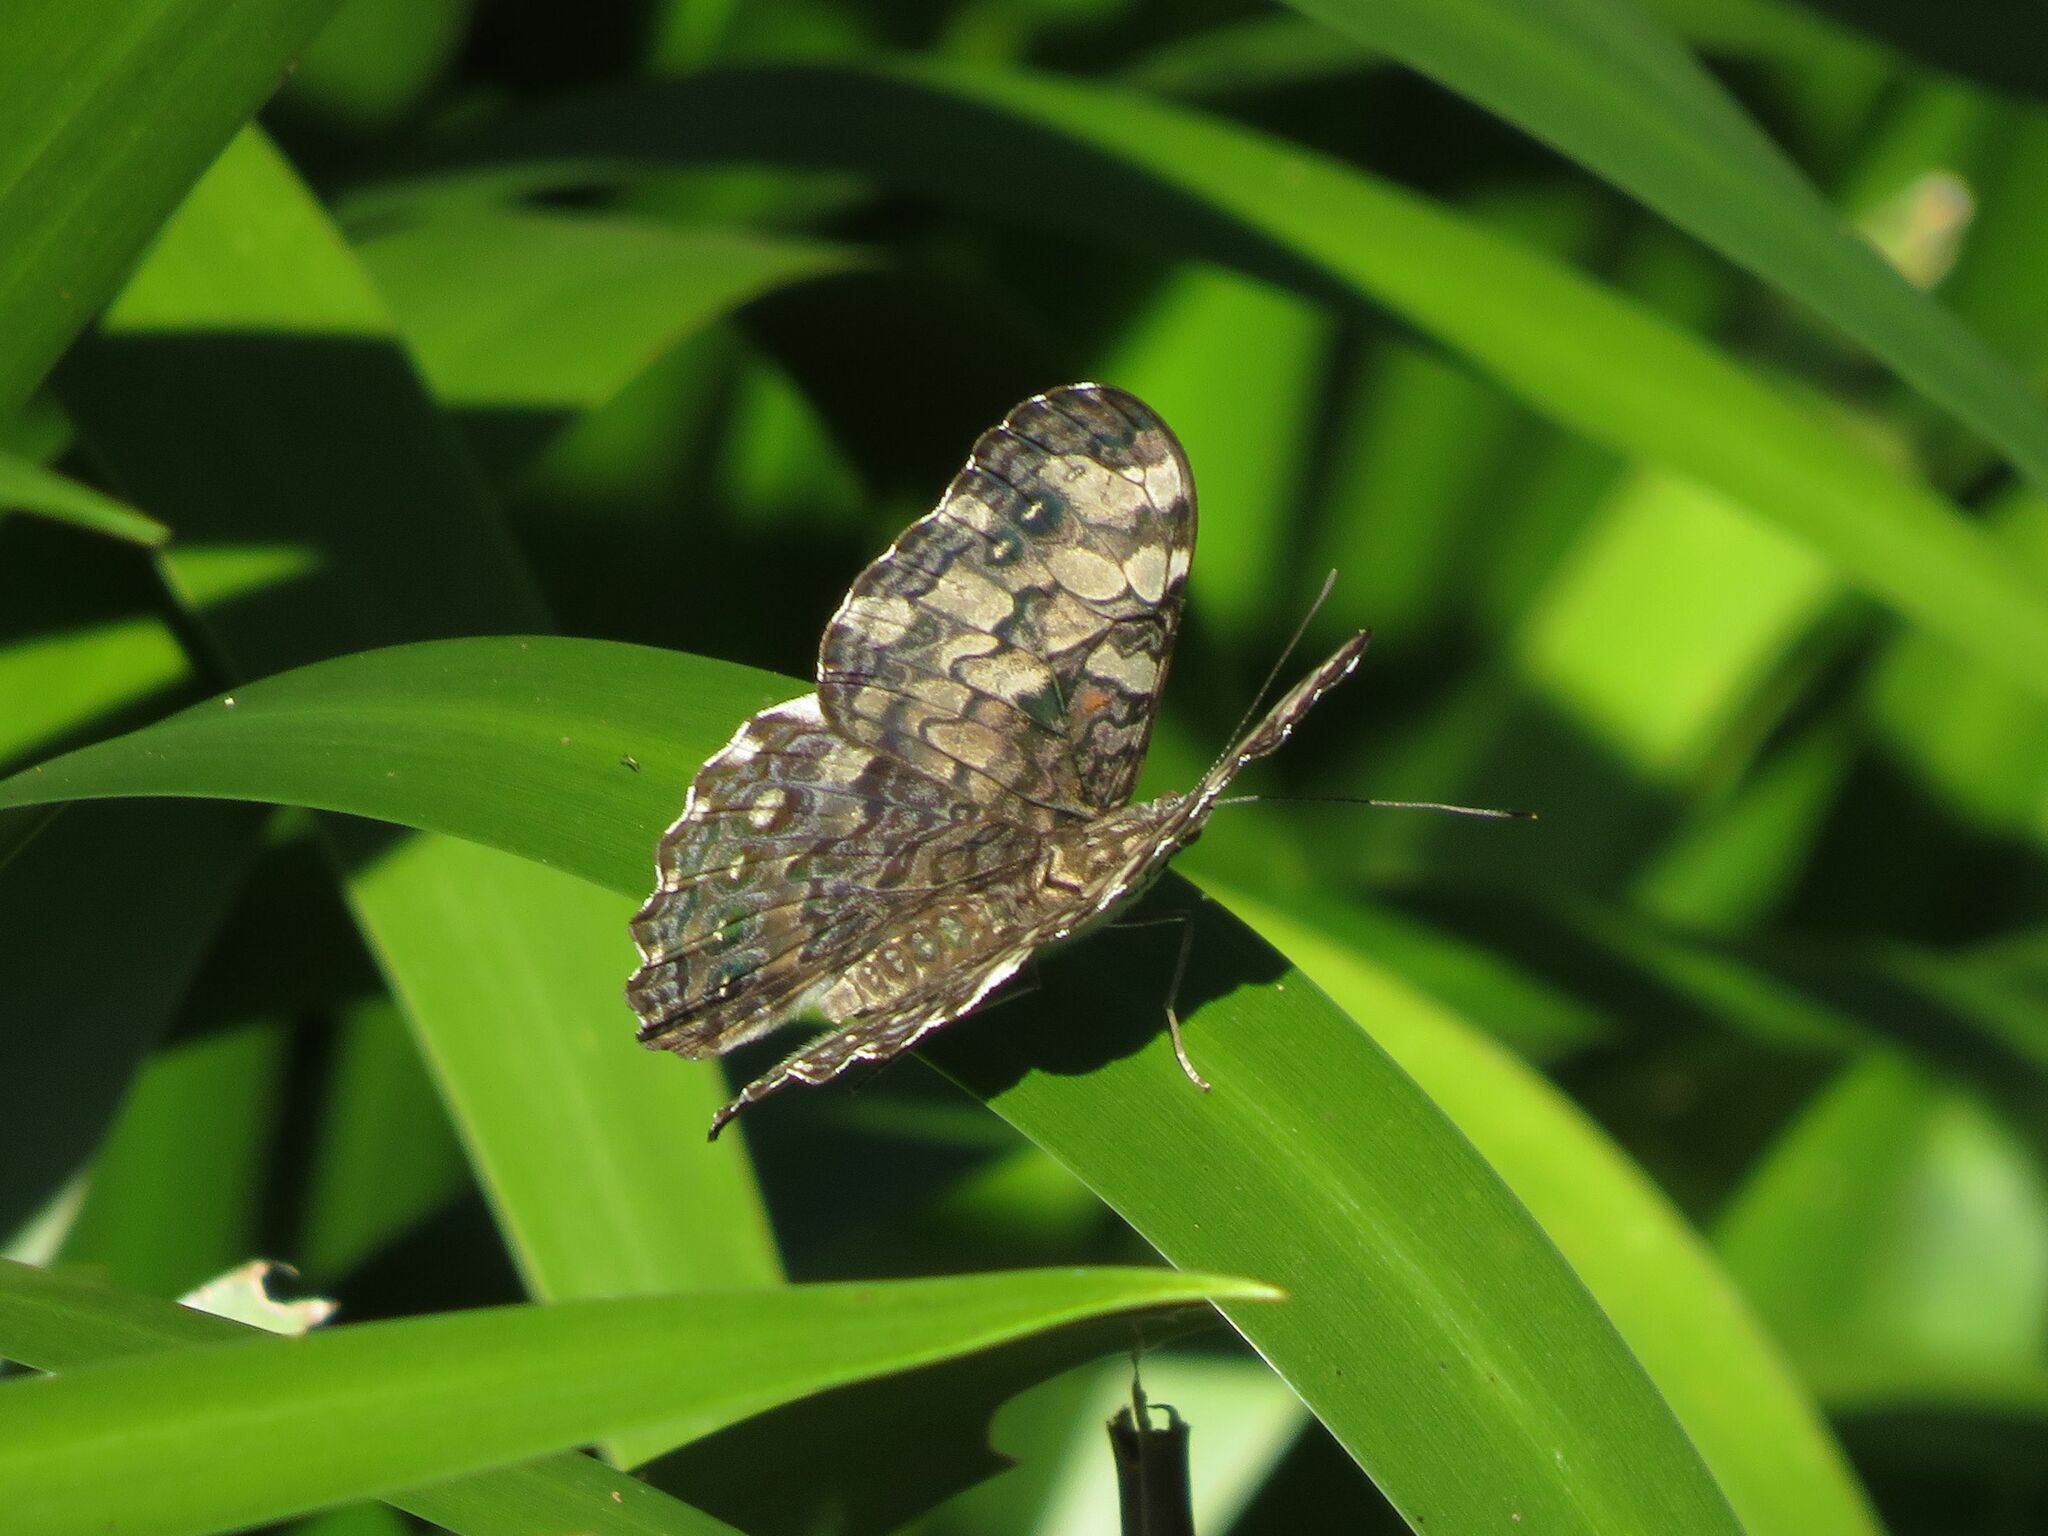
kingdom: Animalia
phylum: Arthropoda
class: Insecta
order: Lepidoptera
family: Nymphalidae
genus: Hamadryas
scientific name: Hamadryas epinome
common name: Epinome cracker
